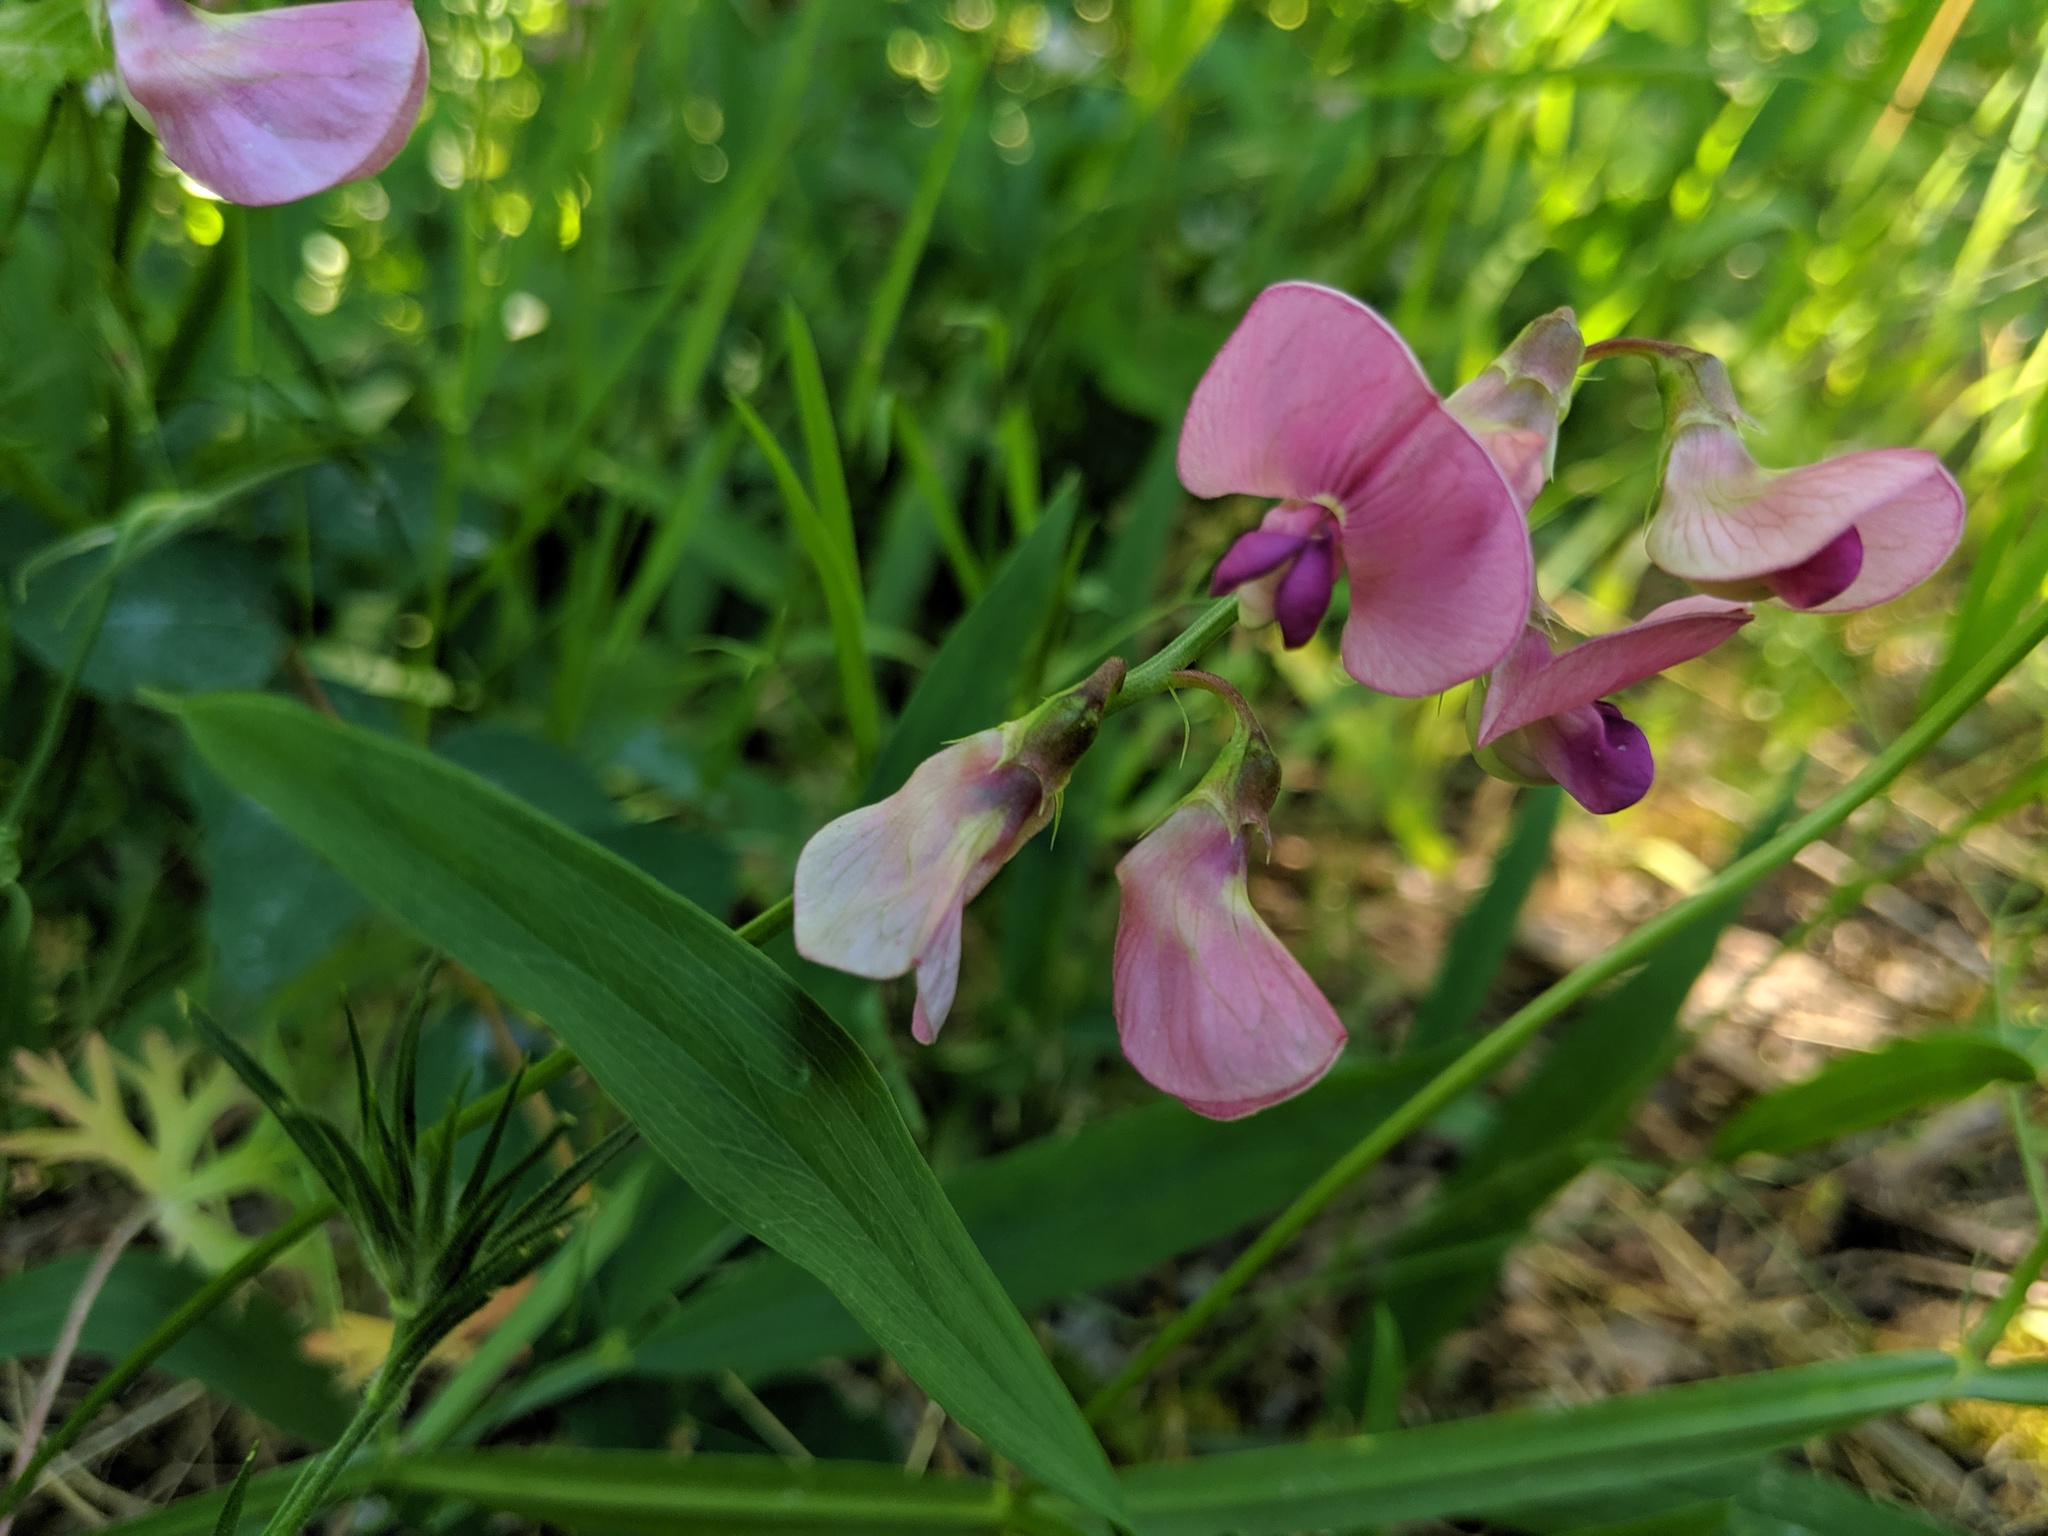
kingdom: Plantae
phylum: Tracheophyta
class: Magnoliopsida
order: Fabales
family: Fabaceae
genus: Lathyrus
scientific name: Lathyrus sylvestris
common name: Flat pea
